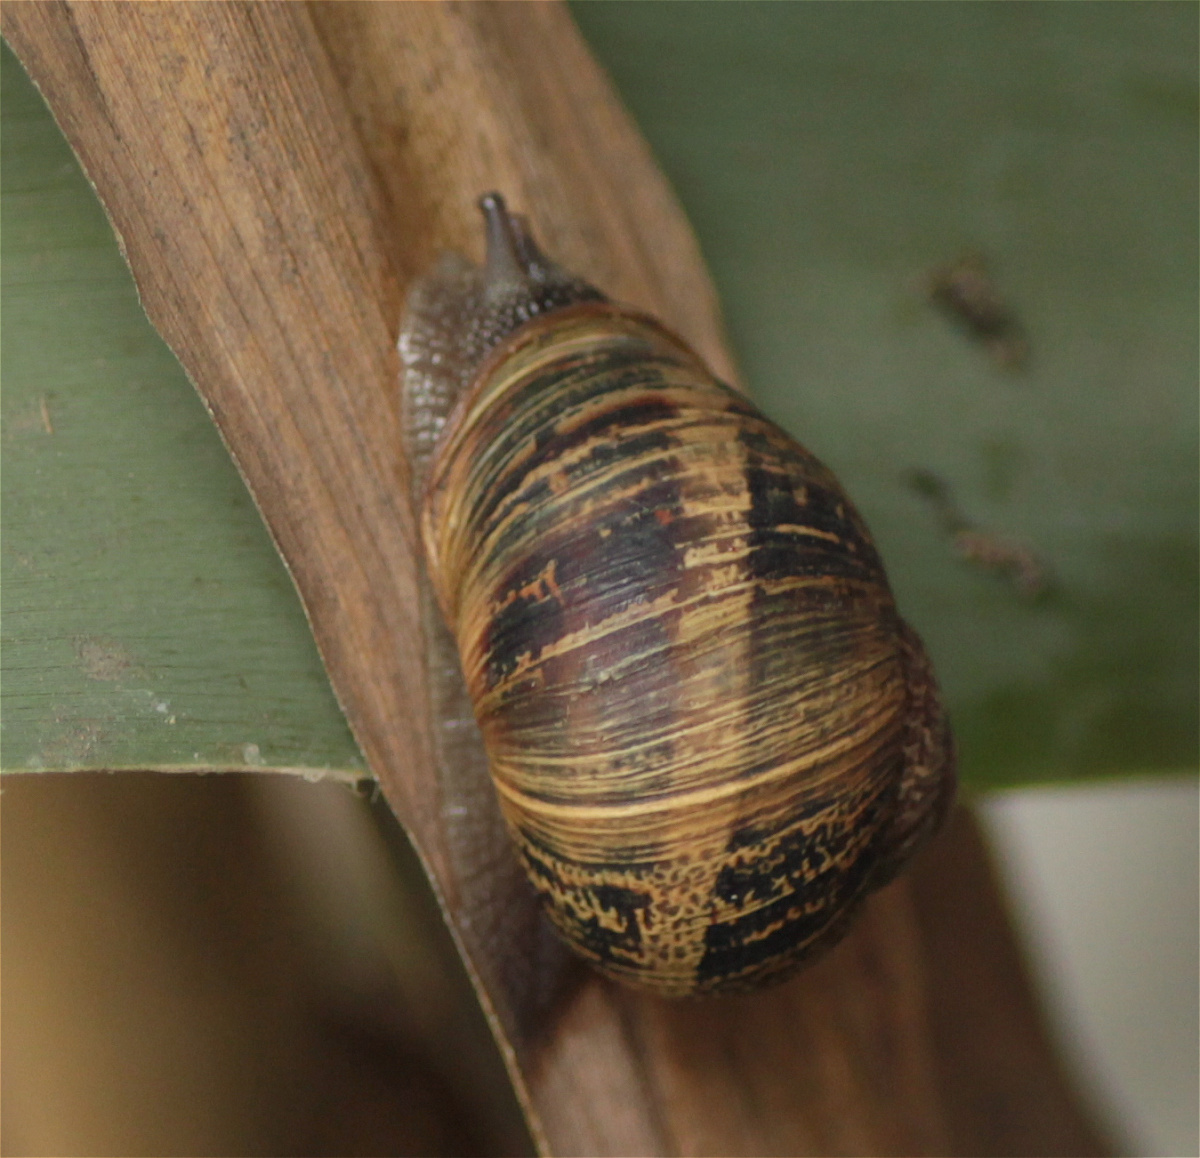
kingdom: Animalia
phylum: Mollusca
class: Gastropoda
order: Stylommatophora
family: Helicidae
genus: Cornu
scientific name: Cornu aspersum
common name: Brown garden snail
